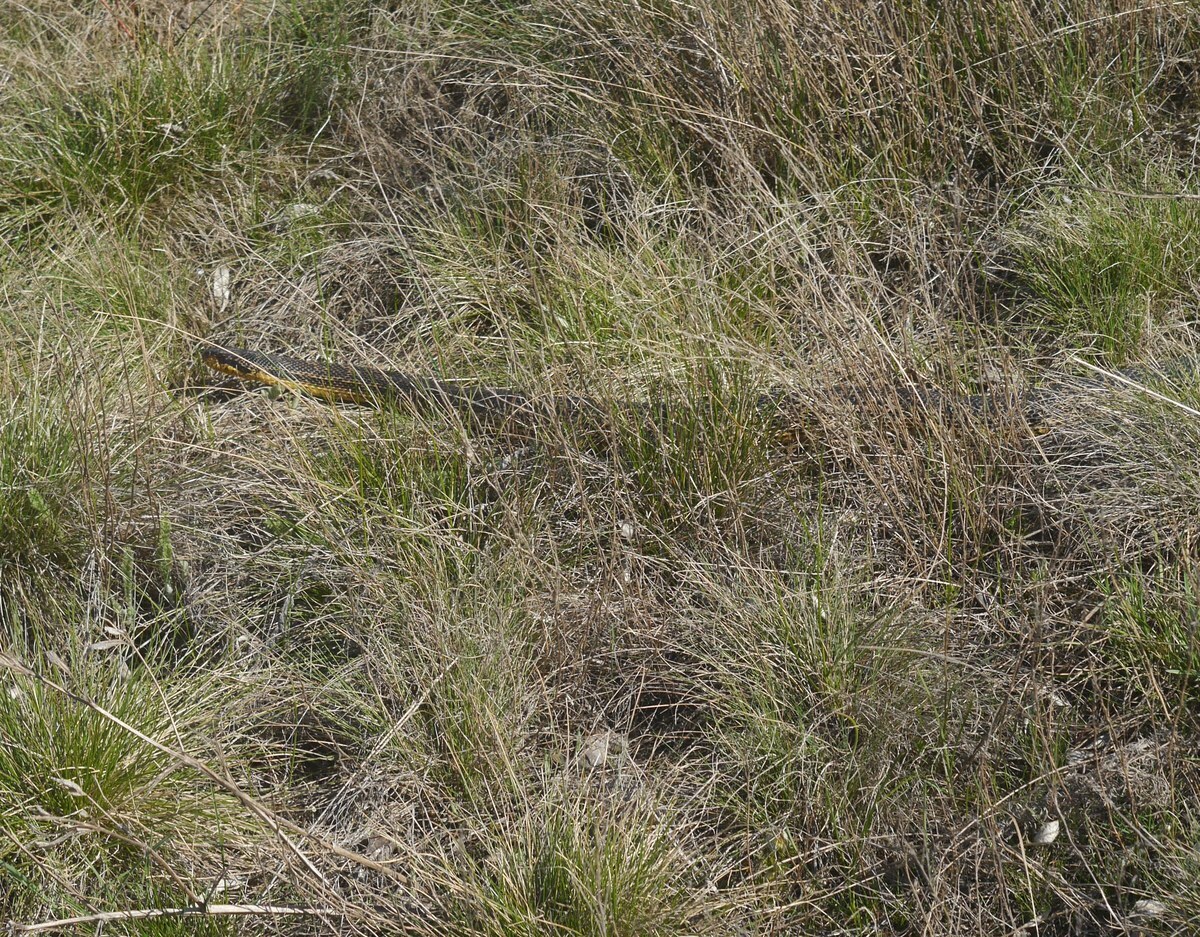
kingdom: Animalia
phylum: Chordata
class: Squamata
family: Colubridae
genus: Elaphe
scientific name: Elaphe sauromates
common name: Eastern four-lined ratsnake
